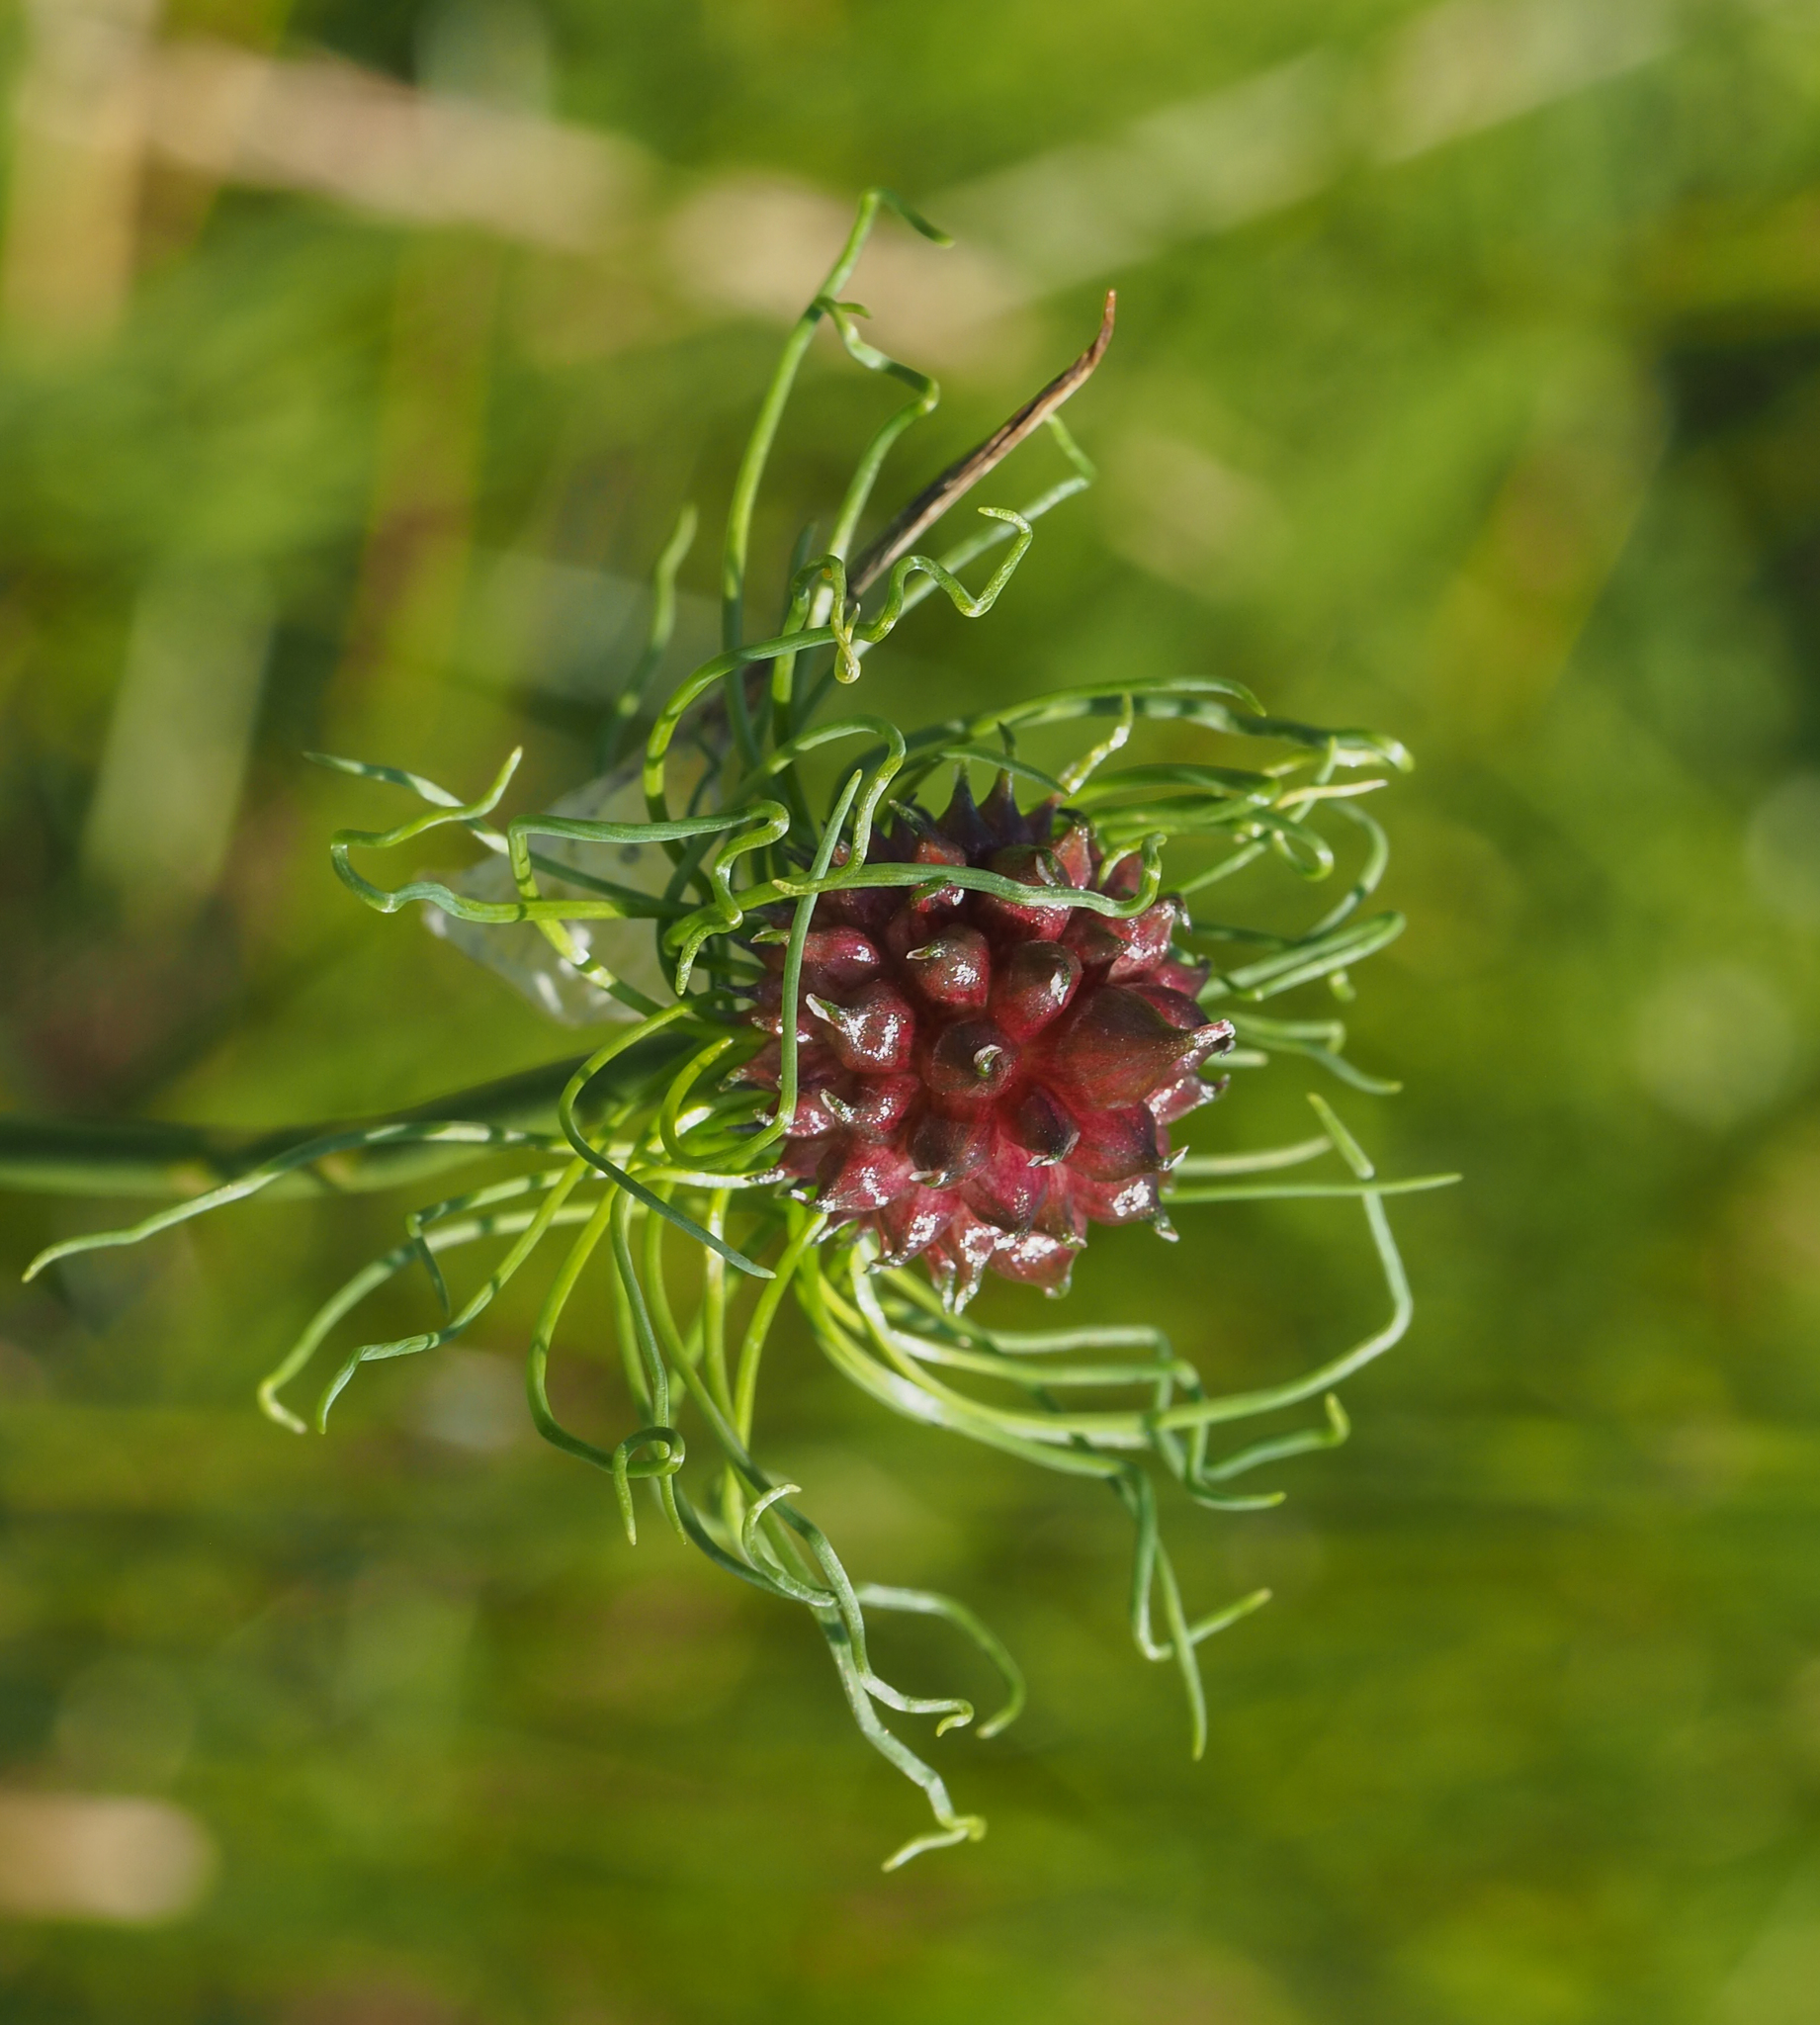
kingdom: Plantae
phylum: Tracheophyta
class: Liliopsida
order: Asparagales
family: Amaryllidaceae
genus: Allium
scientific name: Allium vineale
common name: Crow garlic
